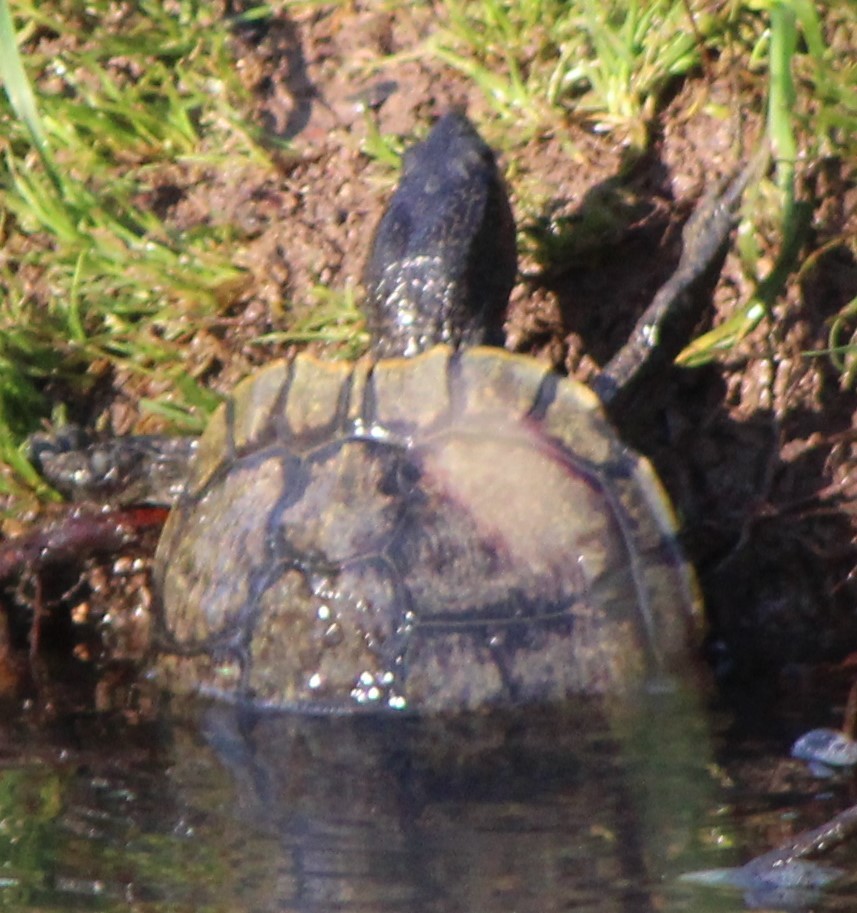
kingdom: Animalia
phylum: Chordata
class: Testudines
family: Emydidae
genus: Trachemys
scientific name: Trachemys scripta
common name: Slider
